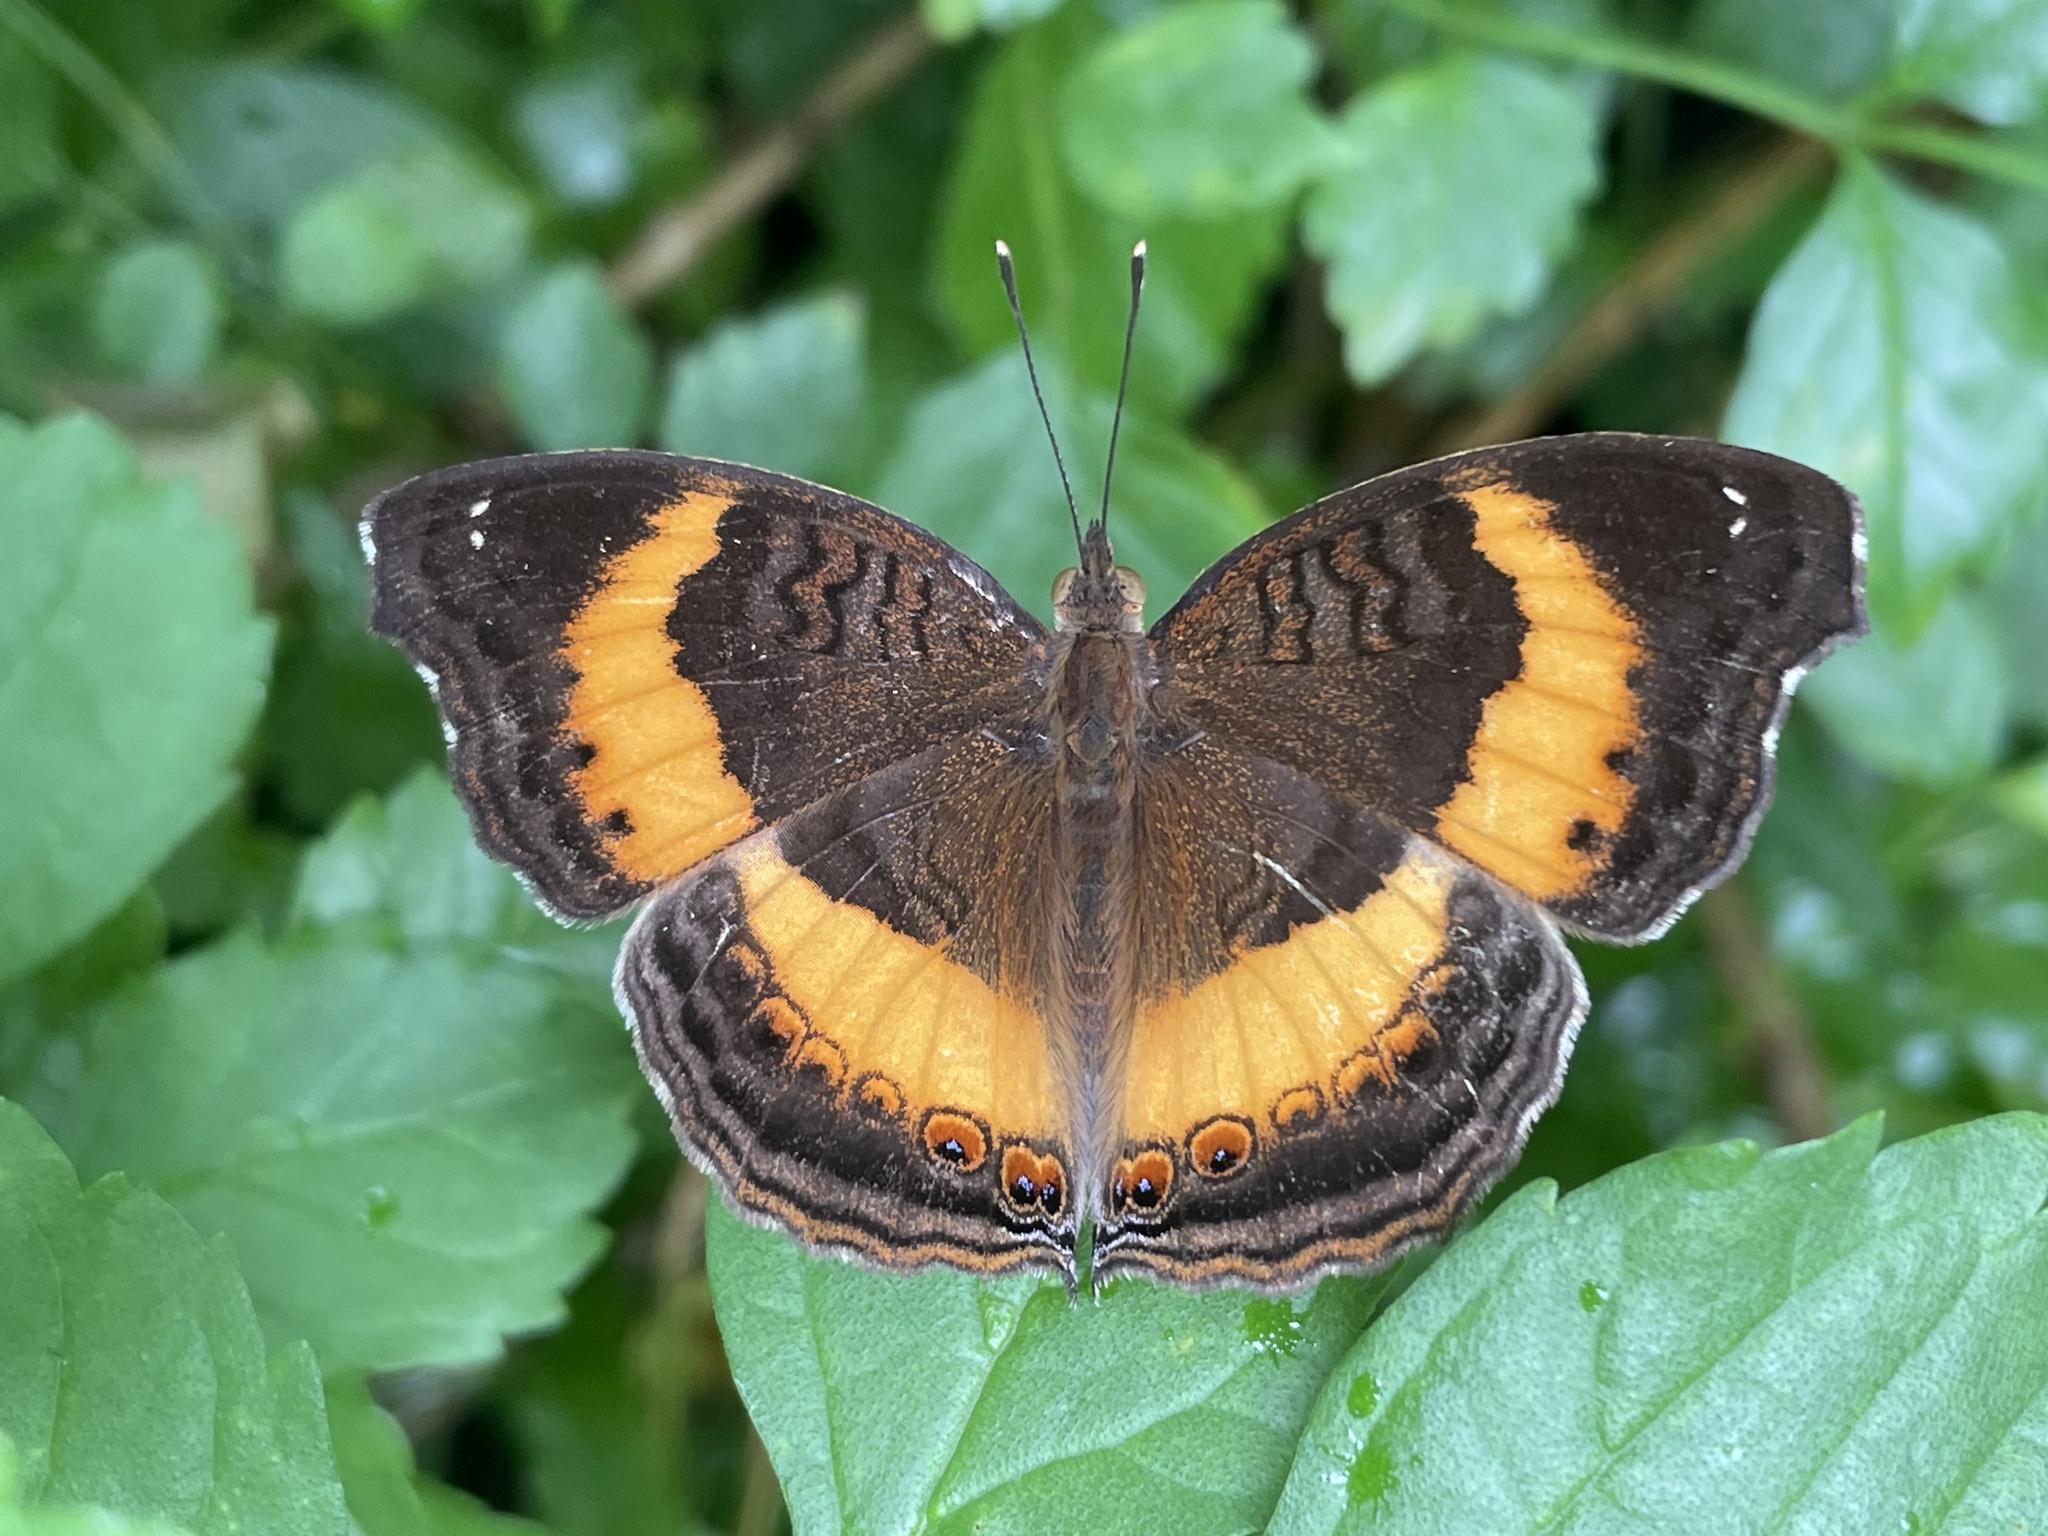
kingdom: Animalia
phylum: Arthropoda
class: Insecta
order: Lepidoptera
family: Nymphalidae
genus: Junonia
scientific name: Junonia terea
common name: Soldier pansy
